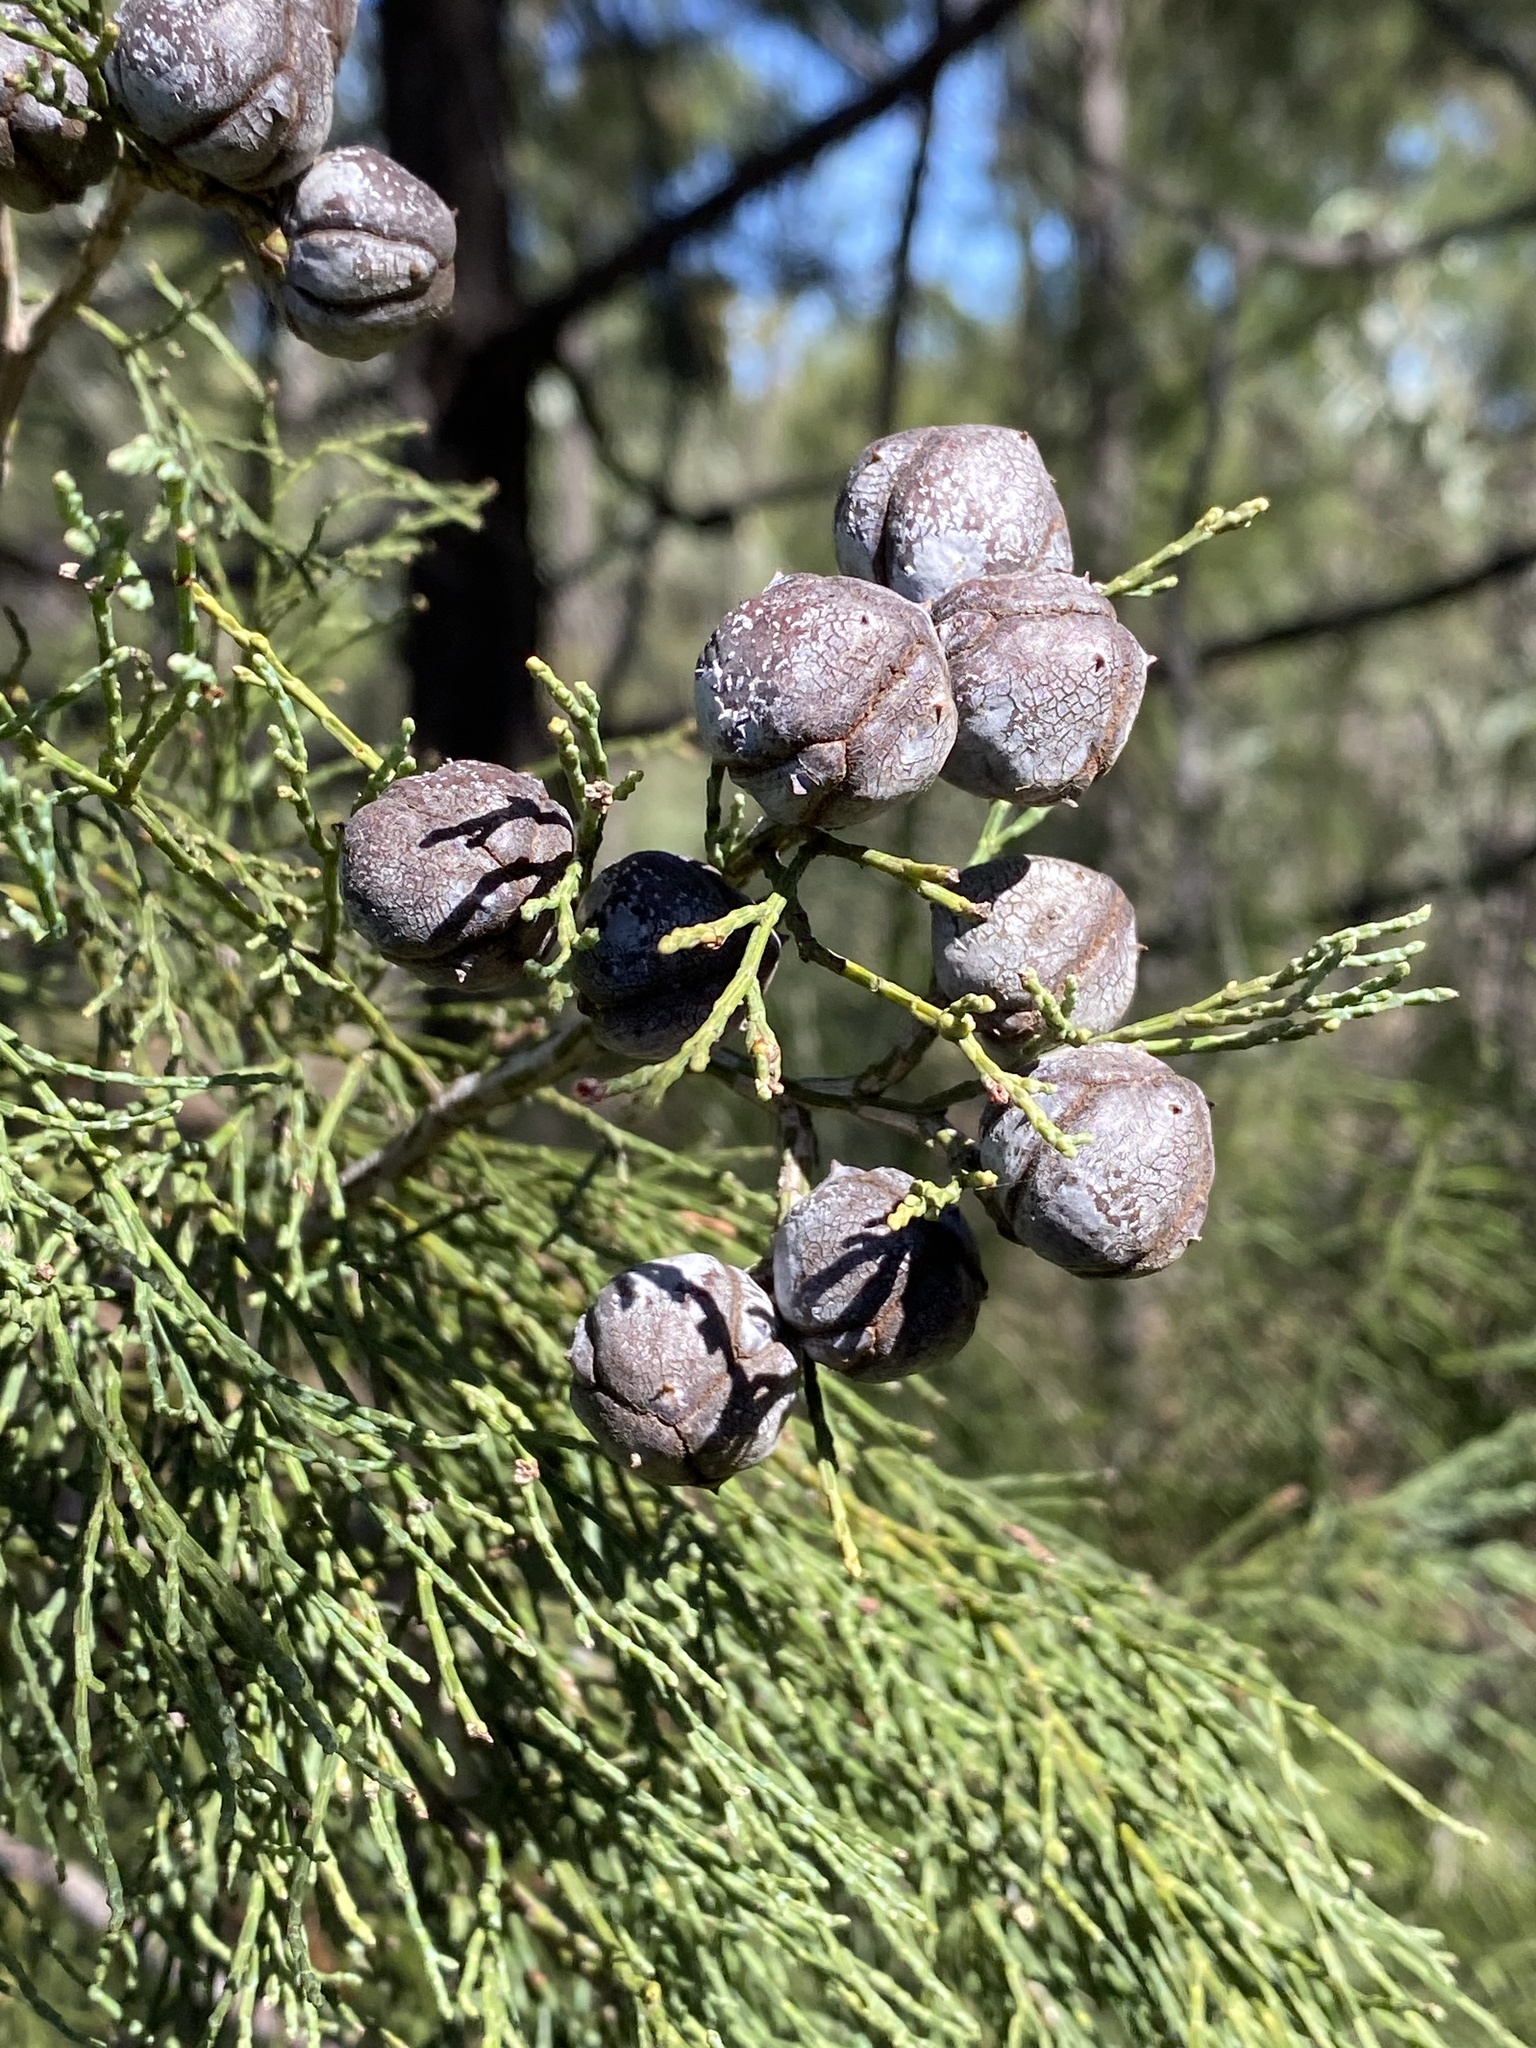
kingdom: Plantae
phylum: Tracheophyta
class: Pinopsida
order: Pinales
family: Cupressaceae
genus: Callitris
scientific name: Callitris columellaris
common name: White cypress-pine
